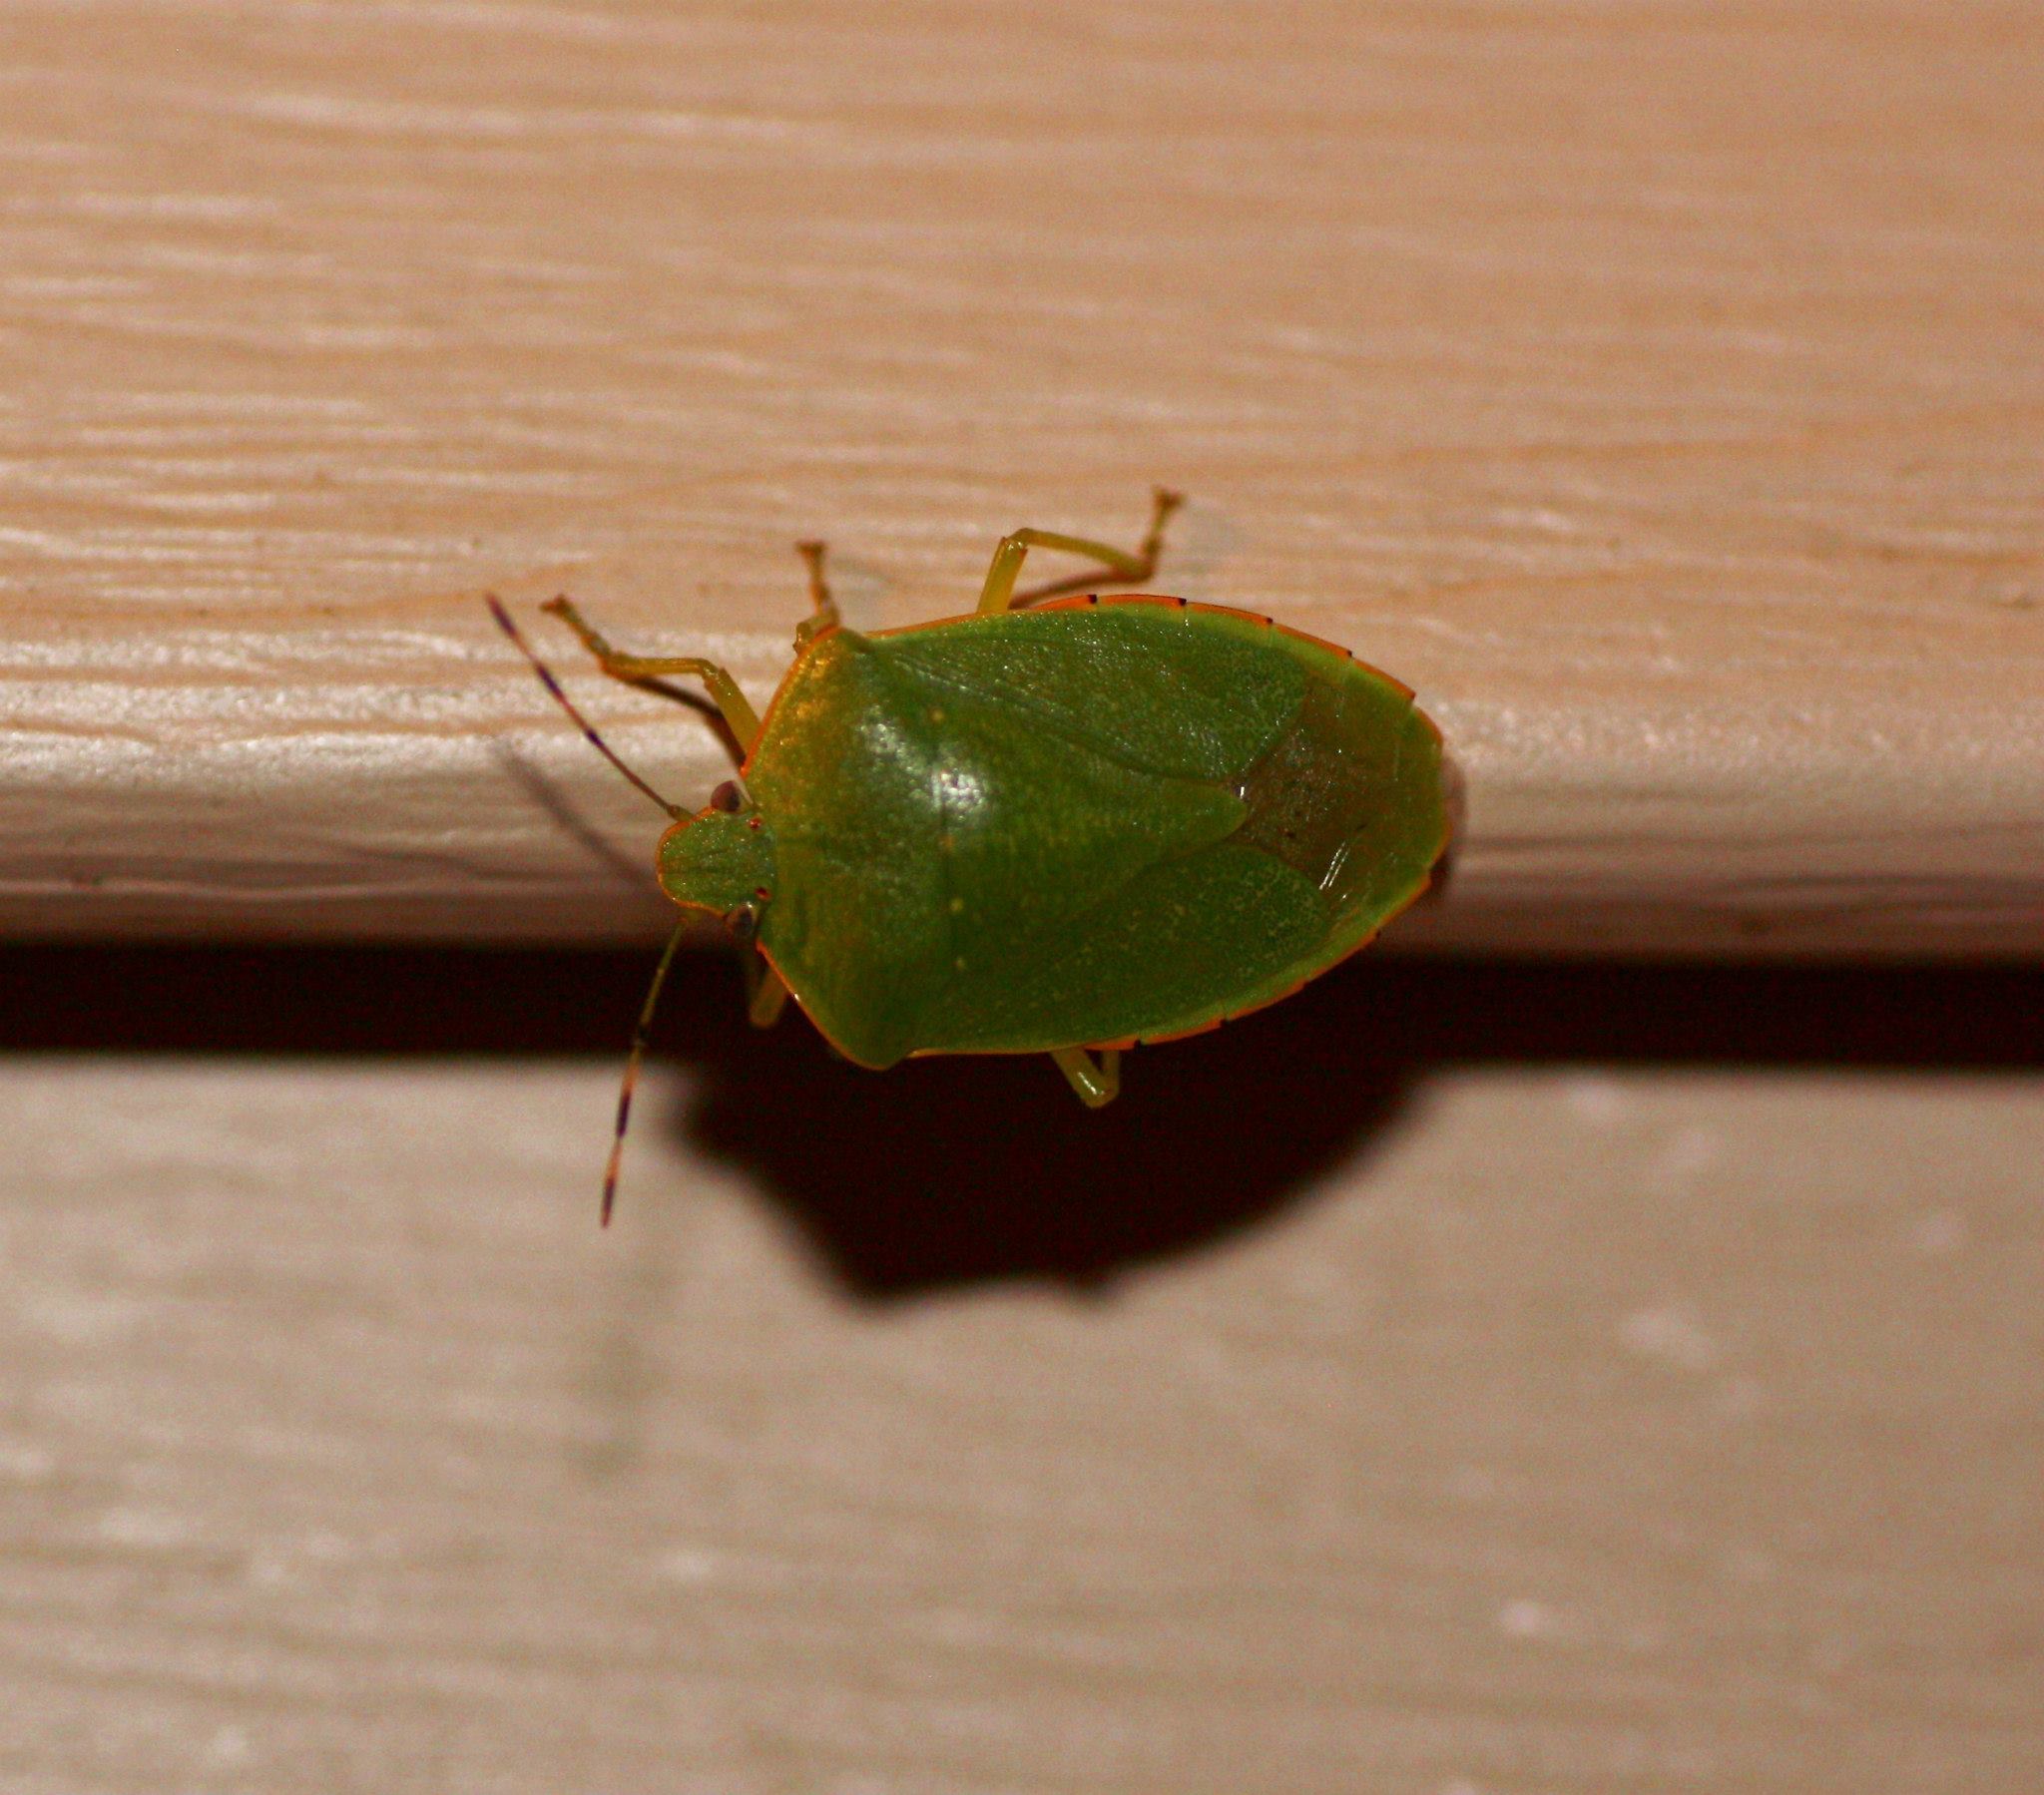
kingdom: Animalia
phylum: Arthropoda
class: Insecta
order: Hemiptera
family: Pentatomidae
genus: Chinavia
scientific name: Chinavia hilaris
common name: Green stink bug
